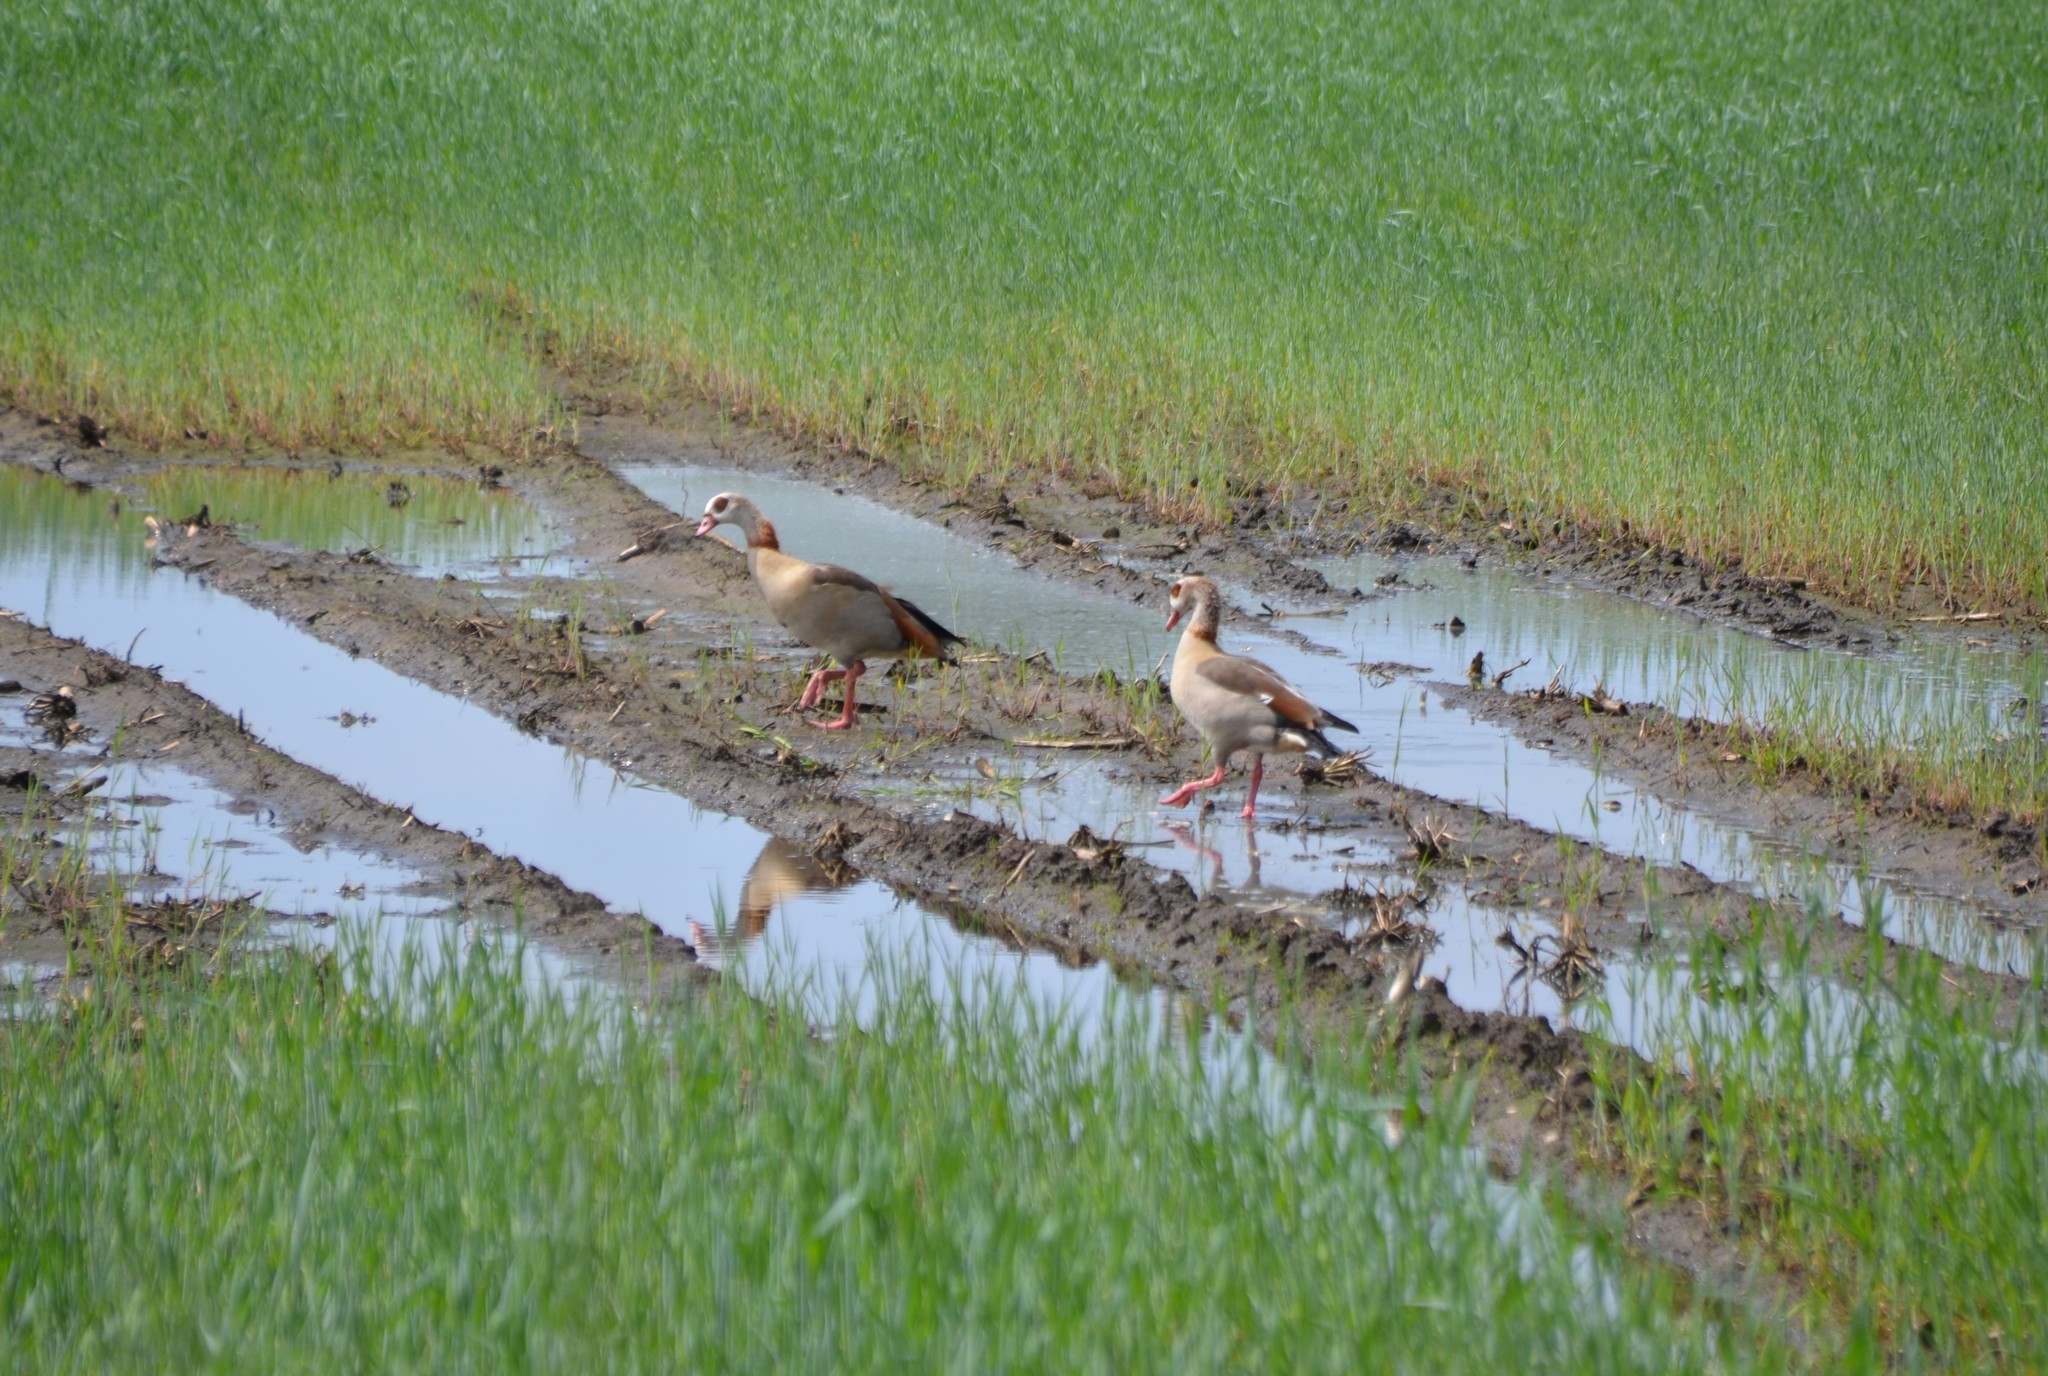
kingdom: Animalia
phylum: Chordata
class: Aves
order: Anseriformes
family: Anatidae
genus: Alopochen
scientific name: Alopochen aegyptiaca
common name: Egyptian goose
